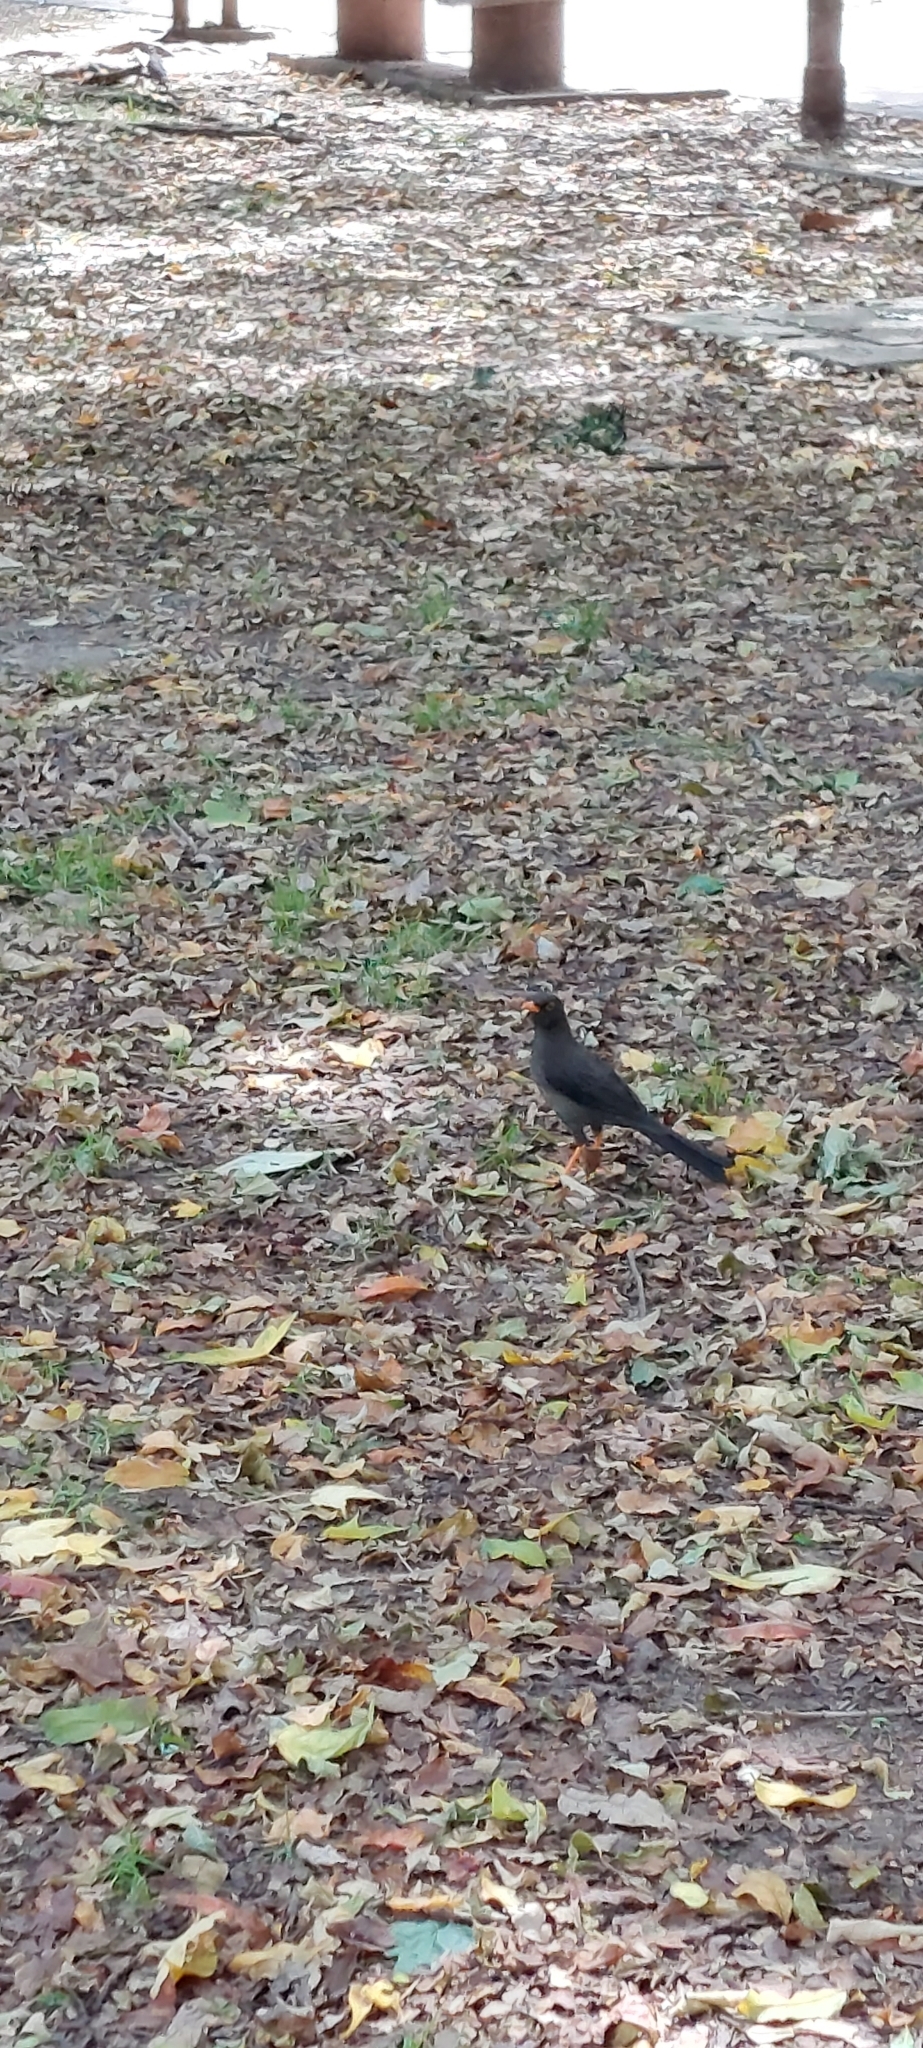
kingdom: Animalia
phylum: Chordata
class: Aves
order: Passeriformes
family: Turdidae
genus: Turdus
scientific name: Turdus fuscater
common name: Great thrush
